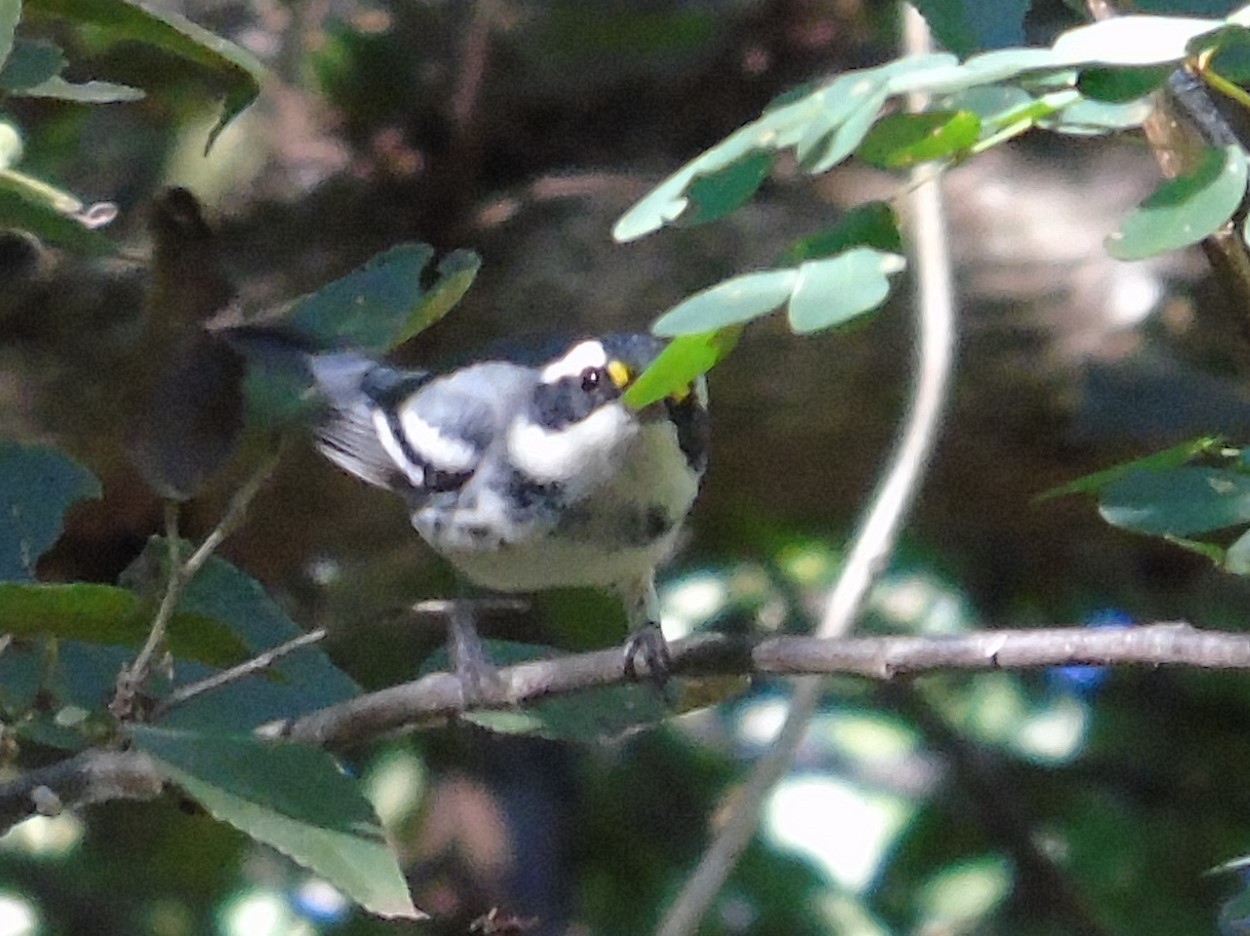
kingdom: Animalia
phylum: Chordata
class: Aves
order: Passeriformes
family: Parulidae
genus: Setophaga
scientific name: Setophaga nigrescens
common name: Black-throated gray warbler
